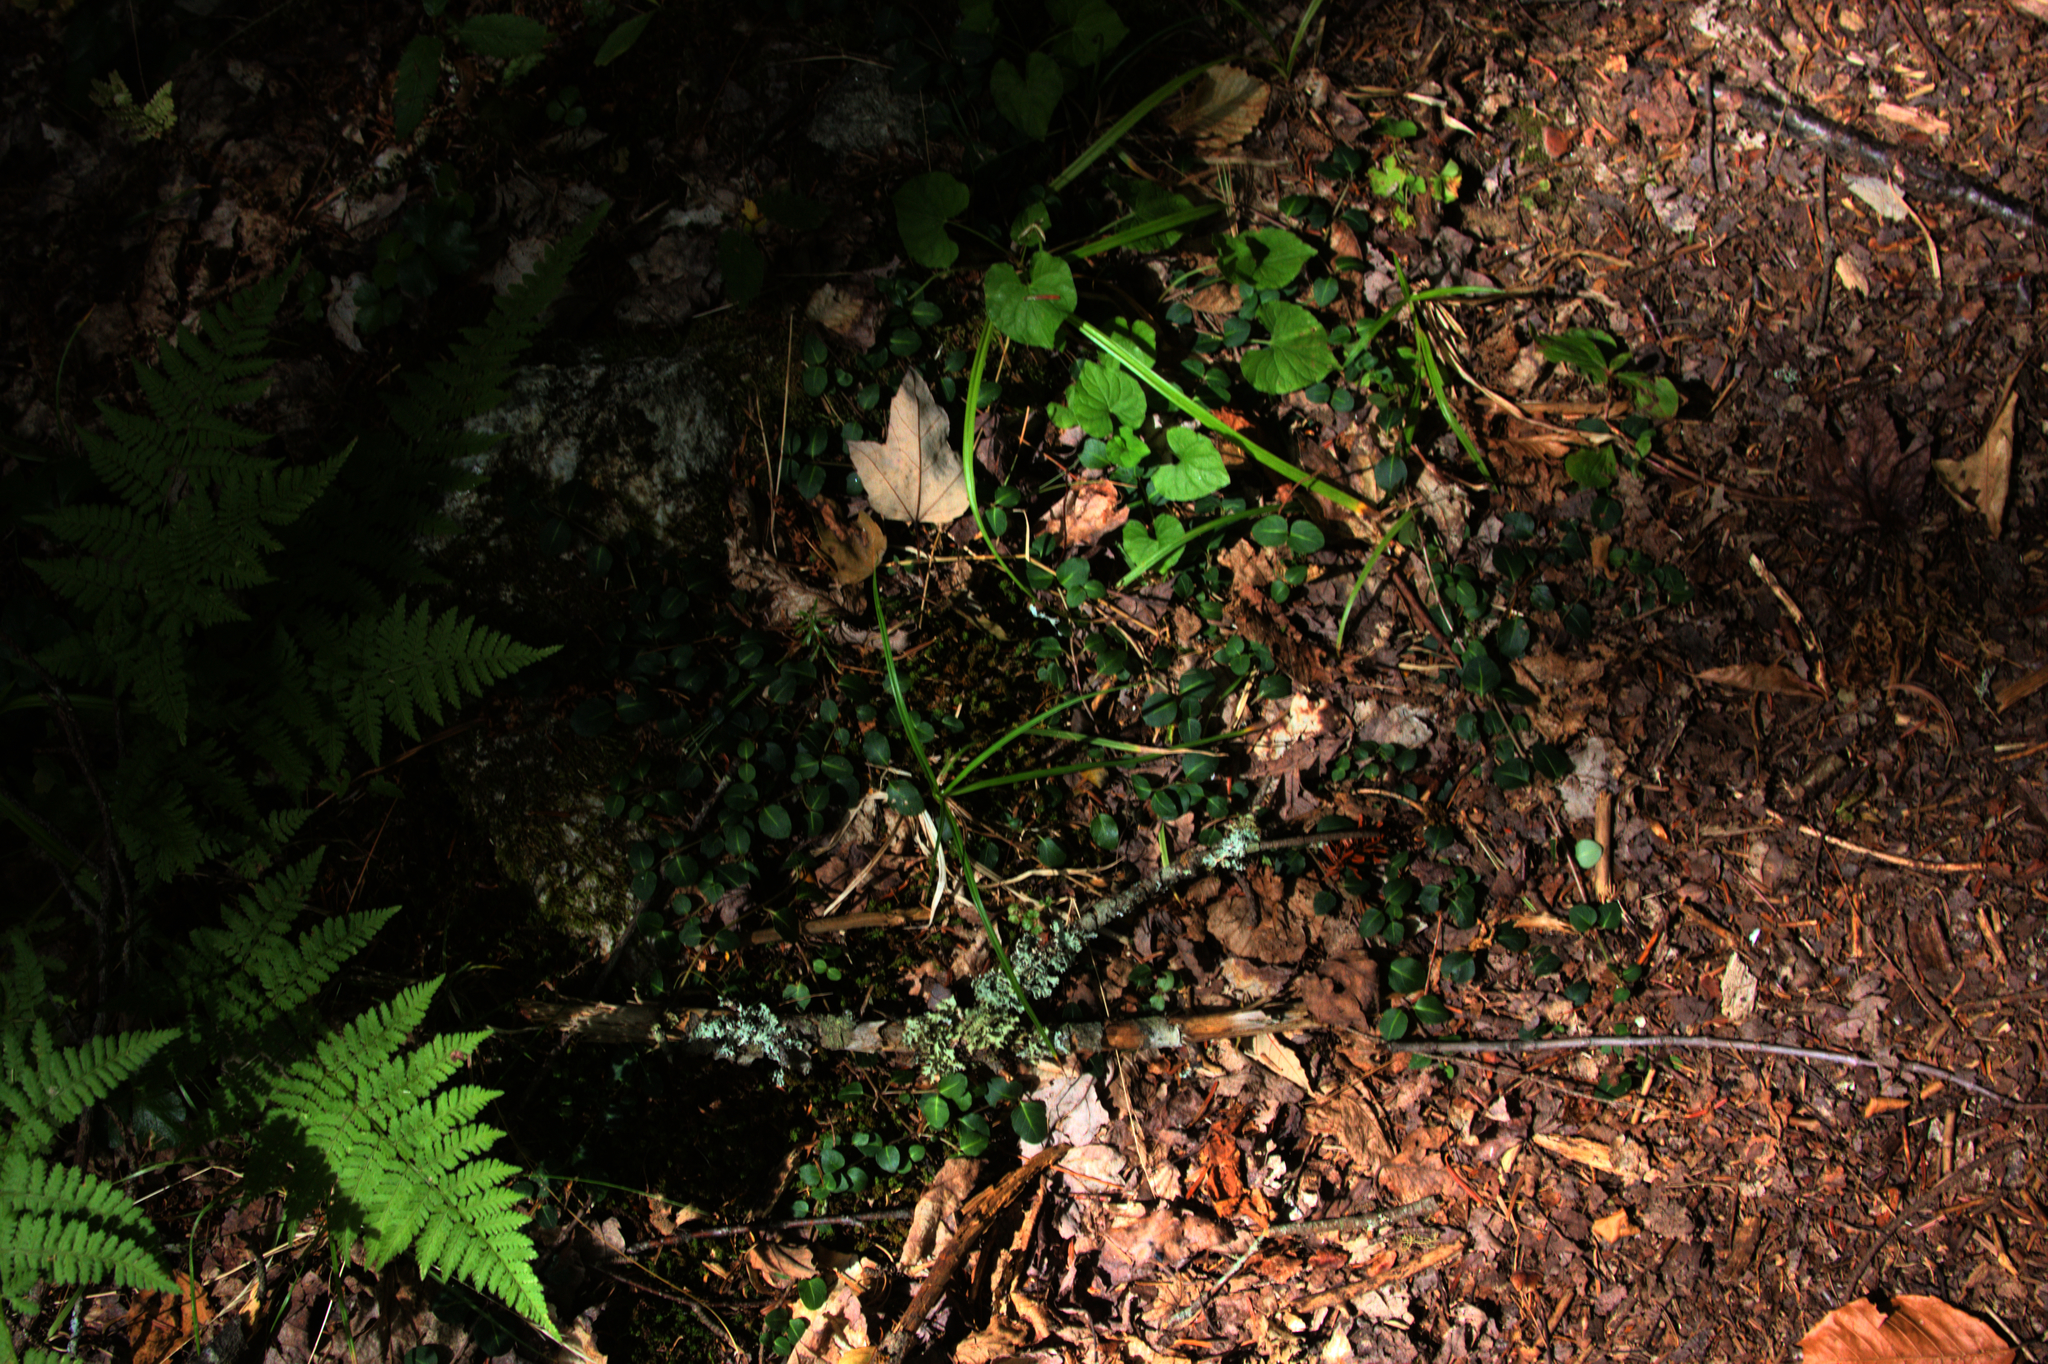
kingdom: Plantae
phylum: Tracheophyta
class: Magnoliopsida
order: Gentianales
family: Rubiaceae
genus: Mitchella
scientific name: Mitchella repens
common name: Partridge-berry
